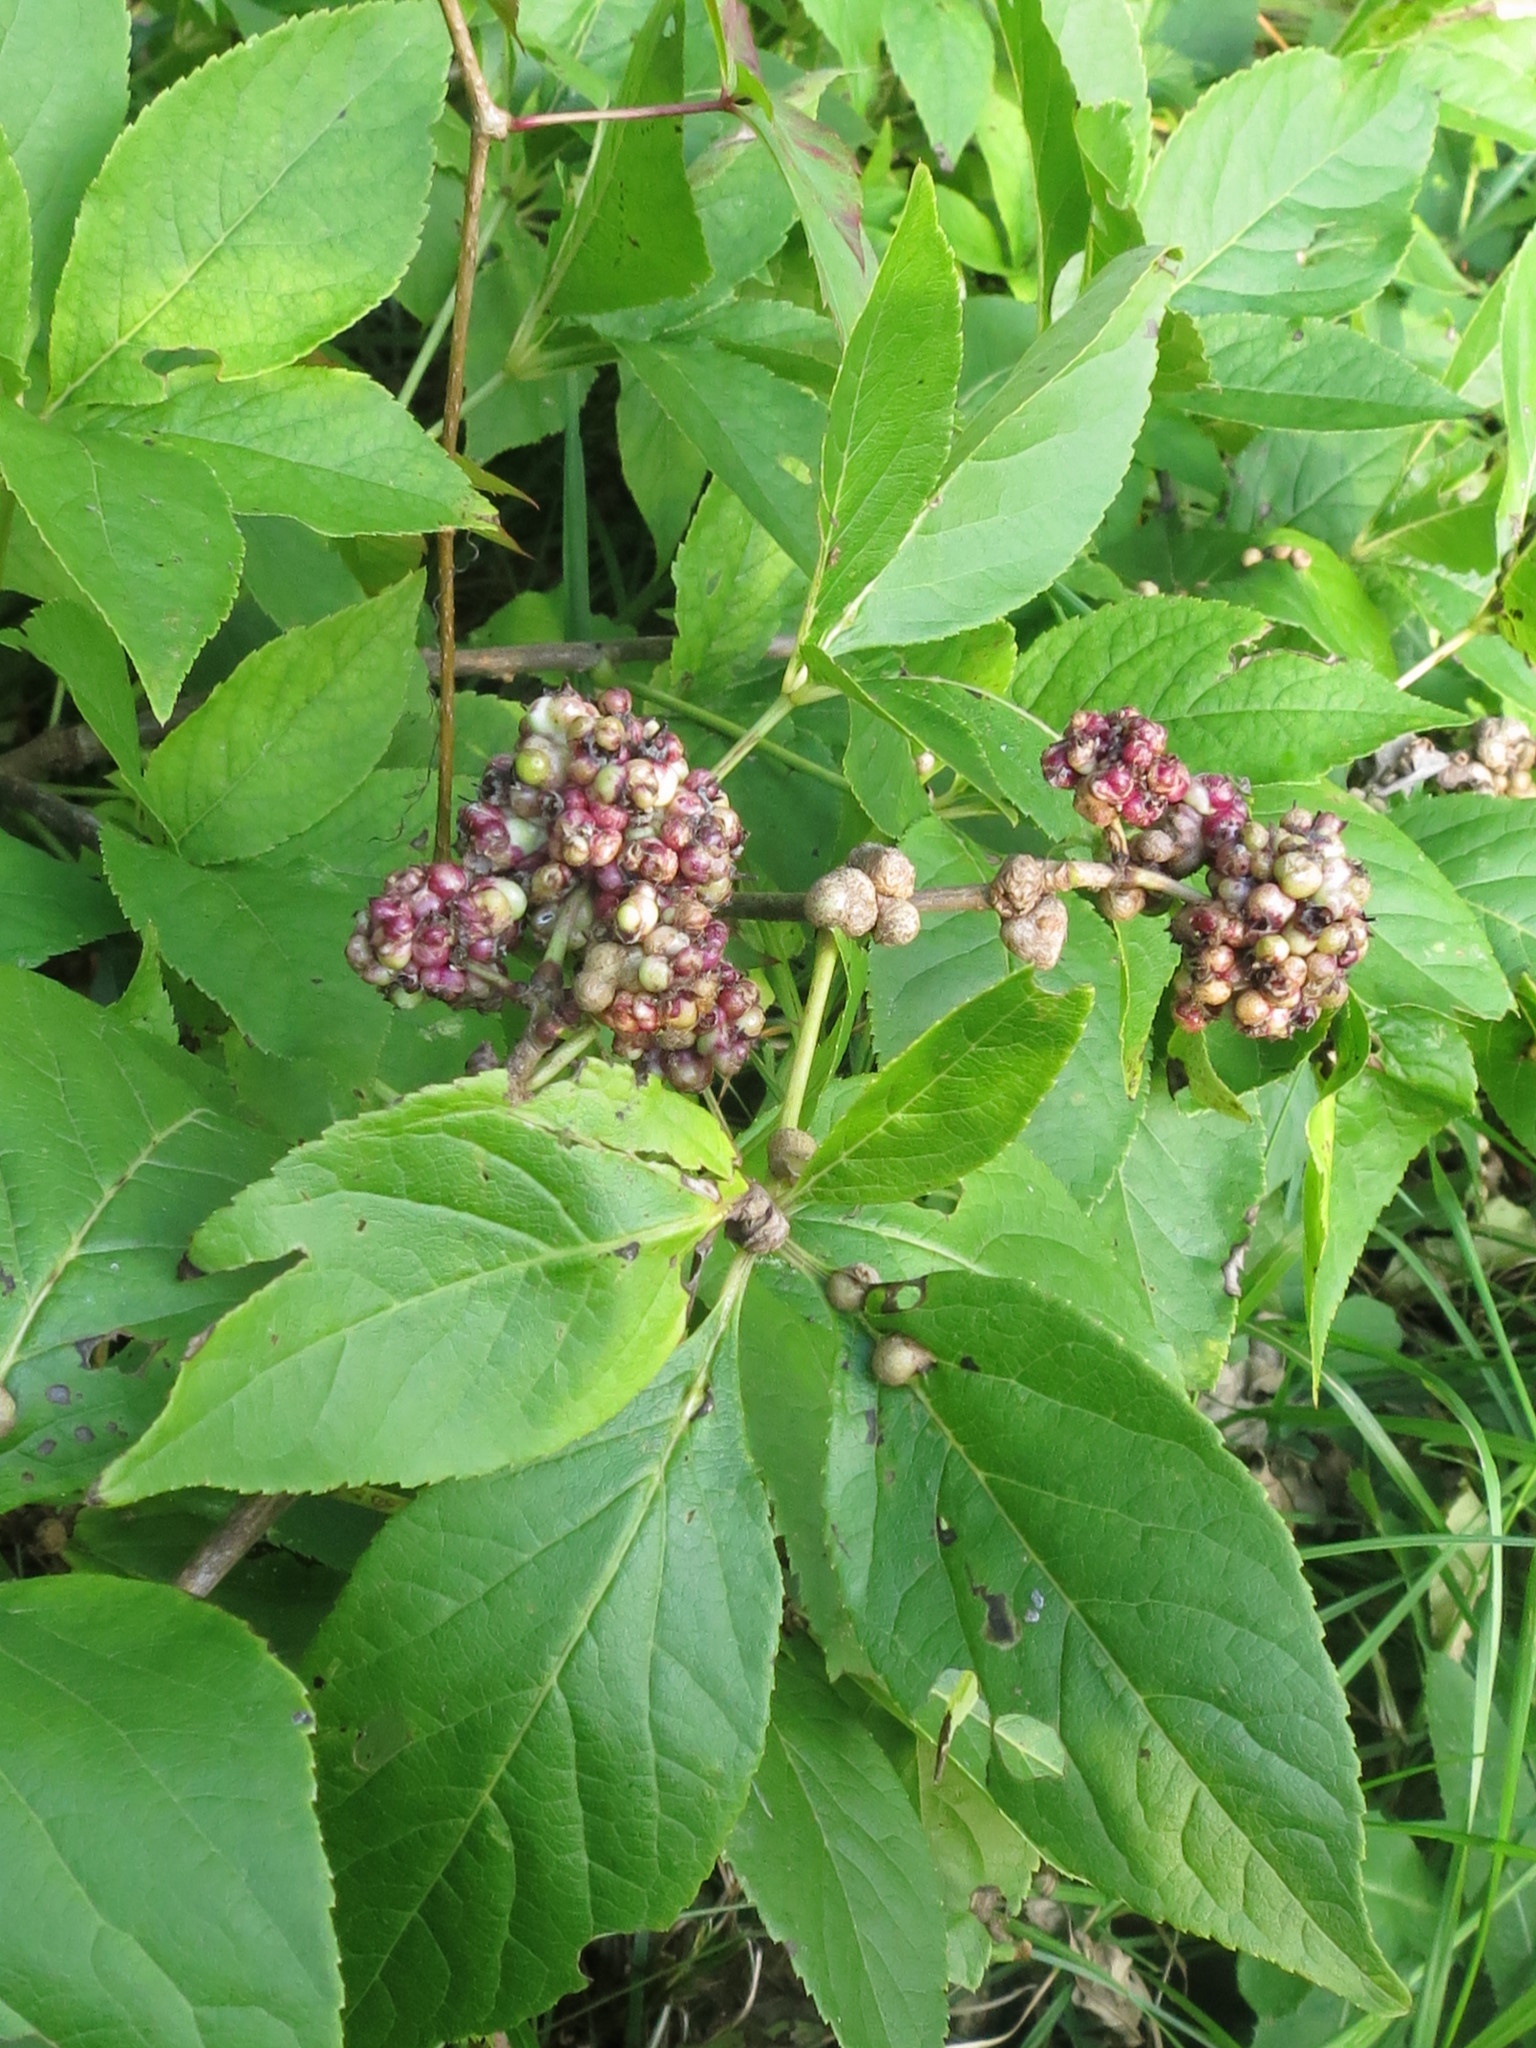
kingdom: Plantae
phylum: Tracheophyta
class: Magnoliopsida
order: Apiales
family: Araliaceae
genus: Eleutherococcus
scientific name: Eleutherococcus sessiliflorus
